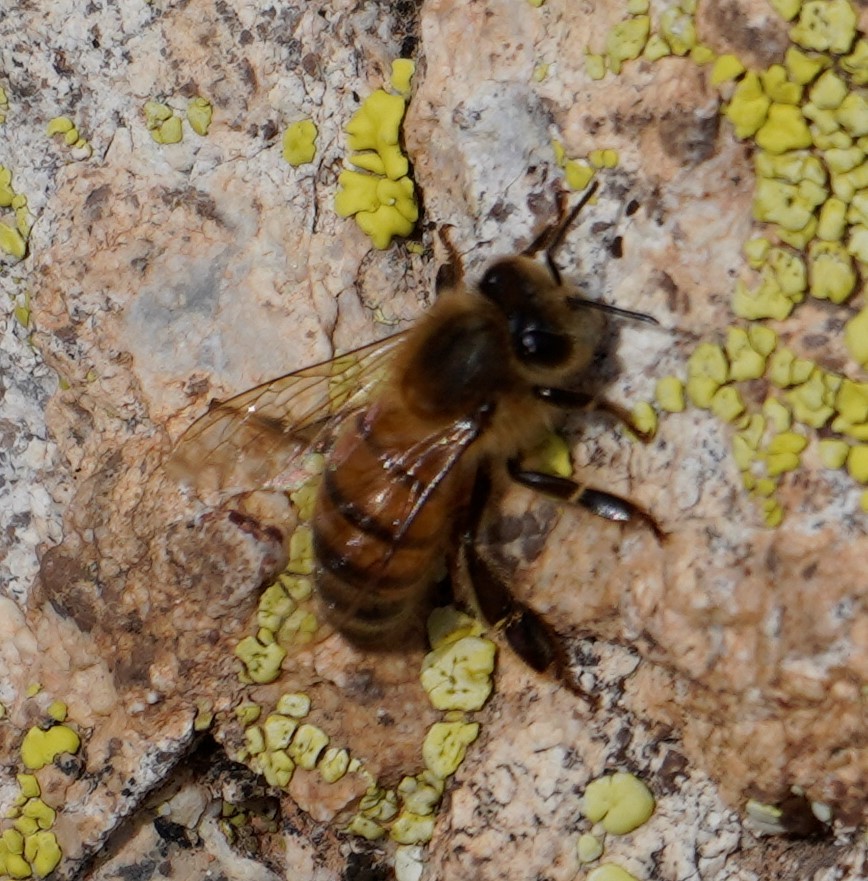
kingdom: Animalia
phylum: Arthropoda
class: Insecta
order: Hymenoptera
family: Apidae
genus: Apis
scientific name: Apis mellifera
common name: Honey bee
